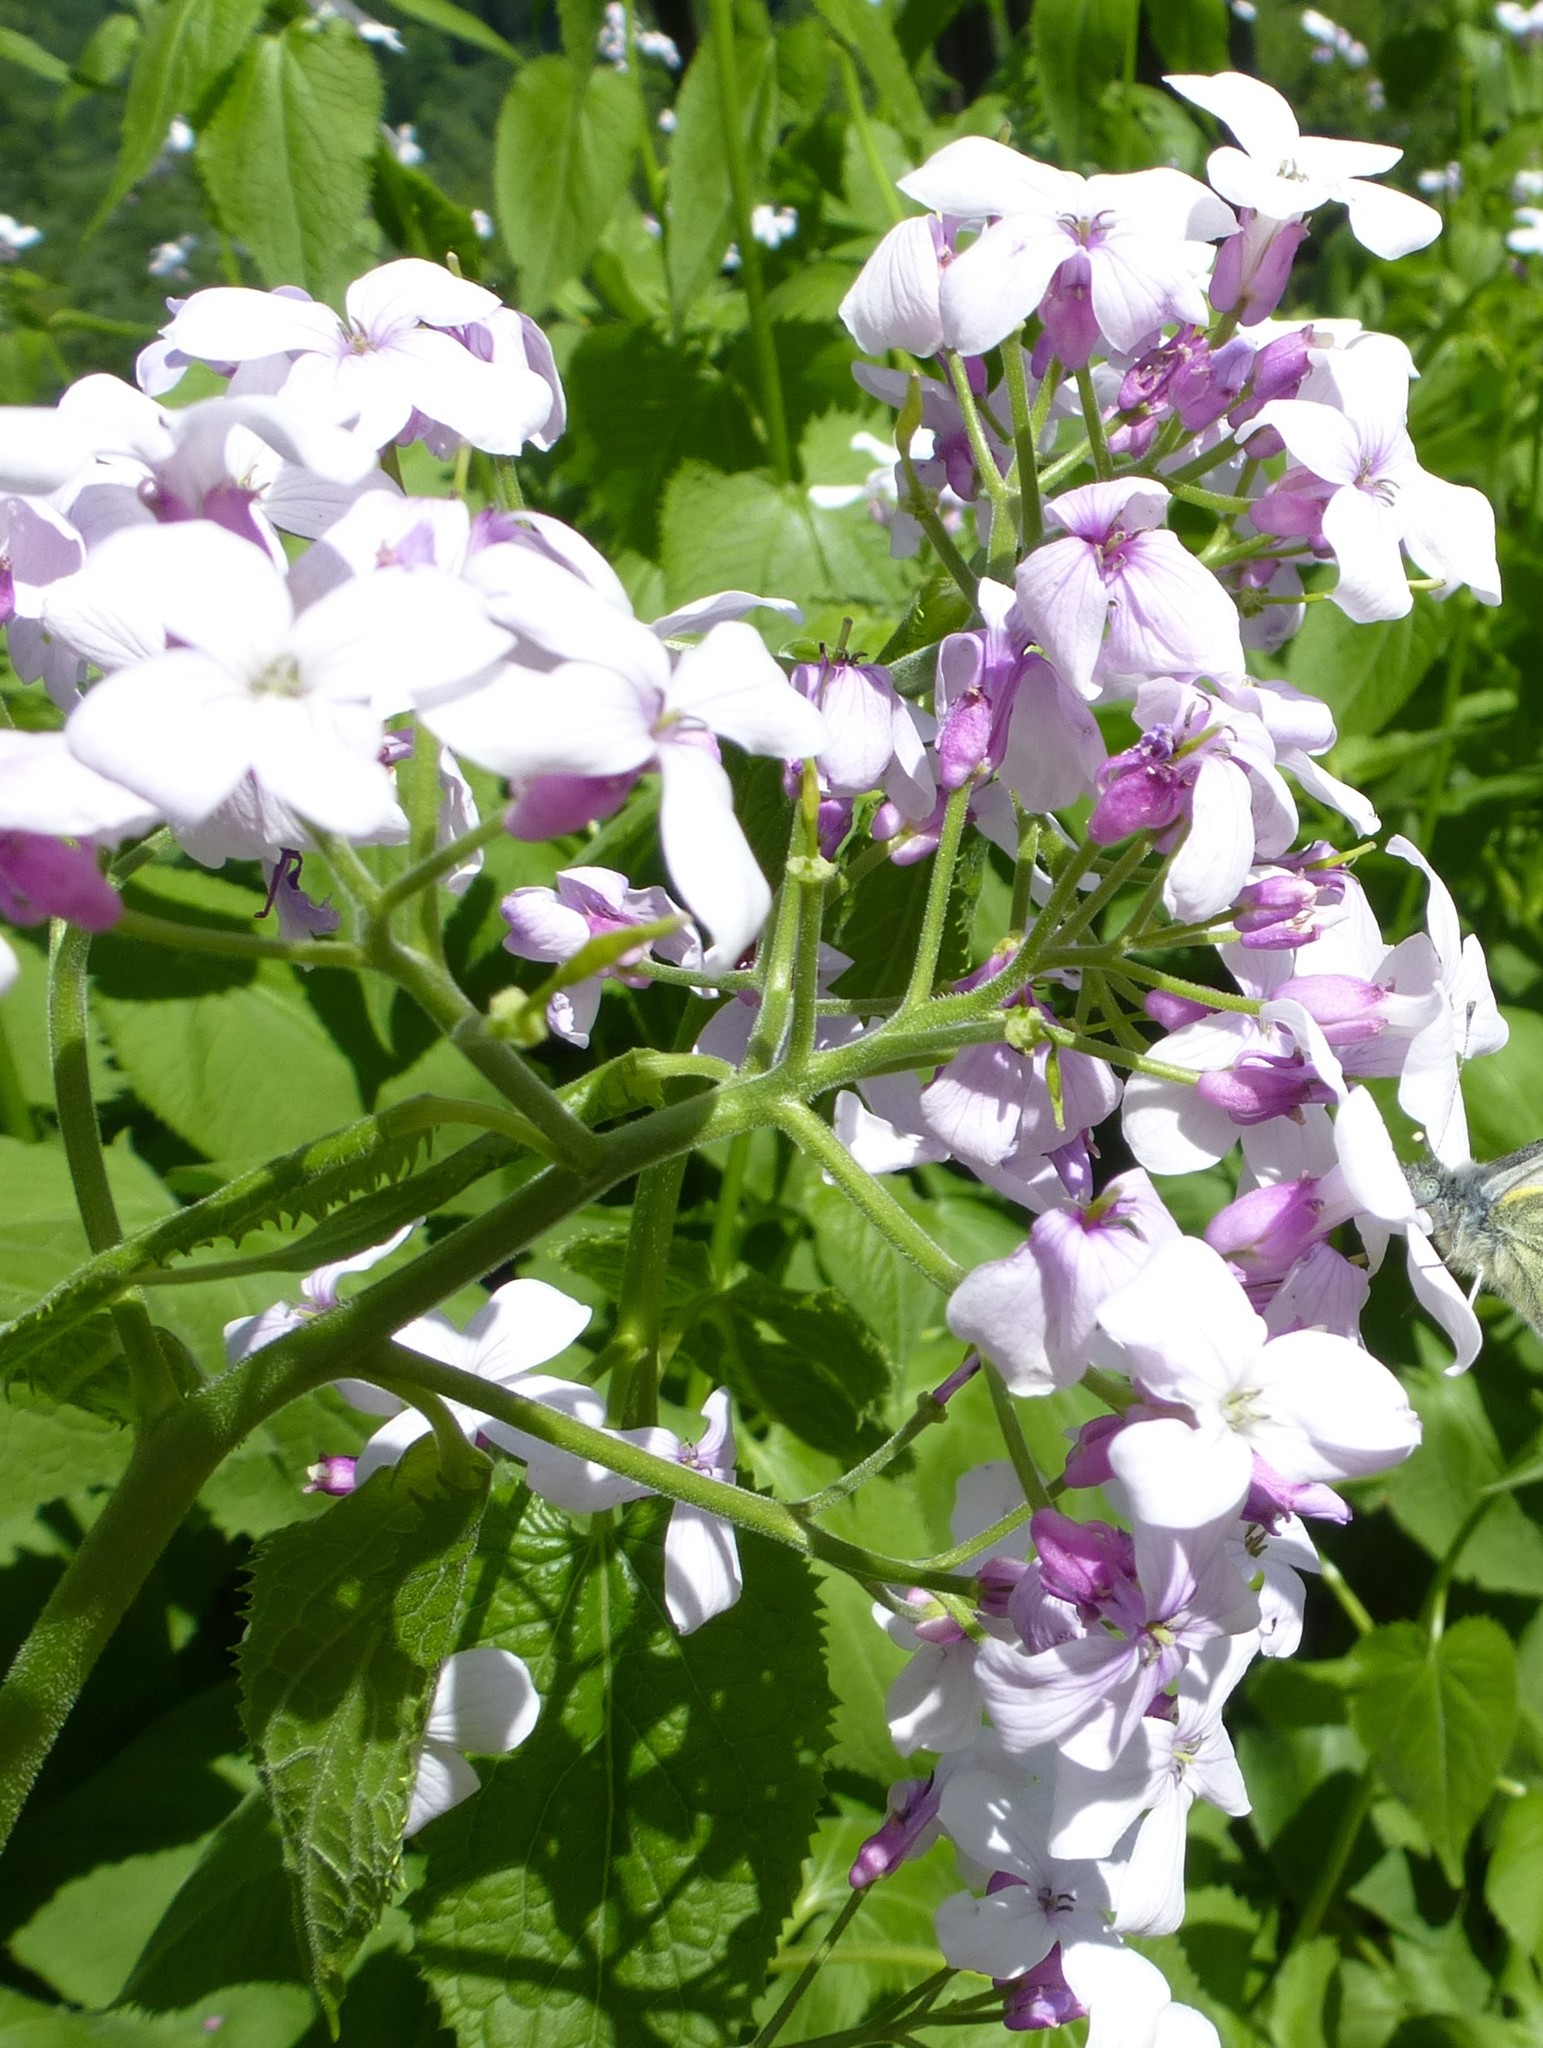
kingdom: Plantae
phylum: Tracheophyta
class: Magnoliopsida
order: Brassicales
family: Brassicaceae
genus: Lunaria
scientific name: Lunaria rediviva
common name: Perennial honesty
